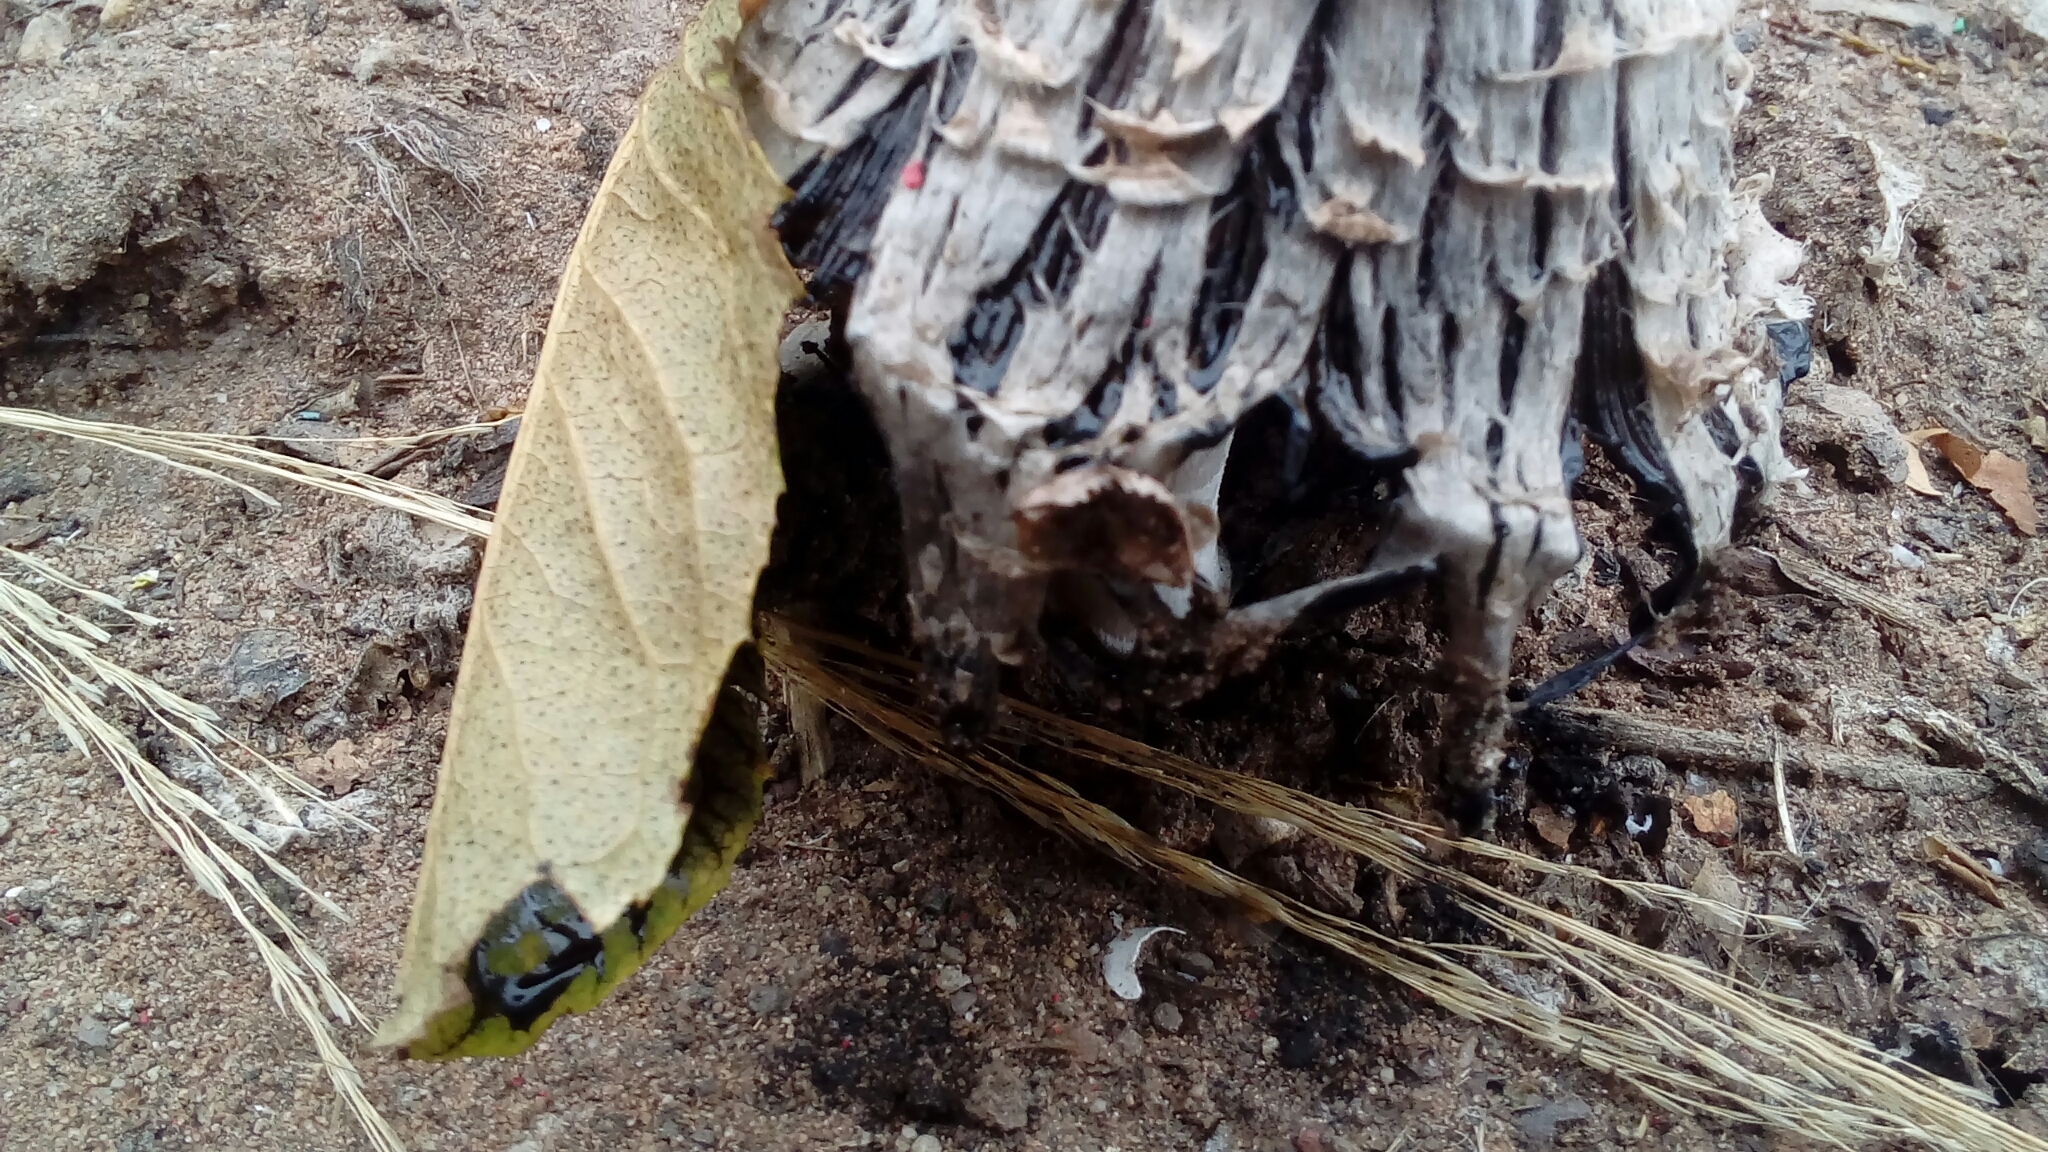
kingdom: Fungi
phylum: Basidiomycota
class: Agaricomycetes
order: Agaricales
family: Agaricaceae
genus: Coprinus
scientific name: Coprinus comatus
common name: Lawyer's wig
